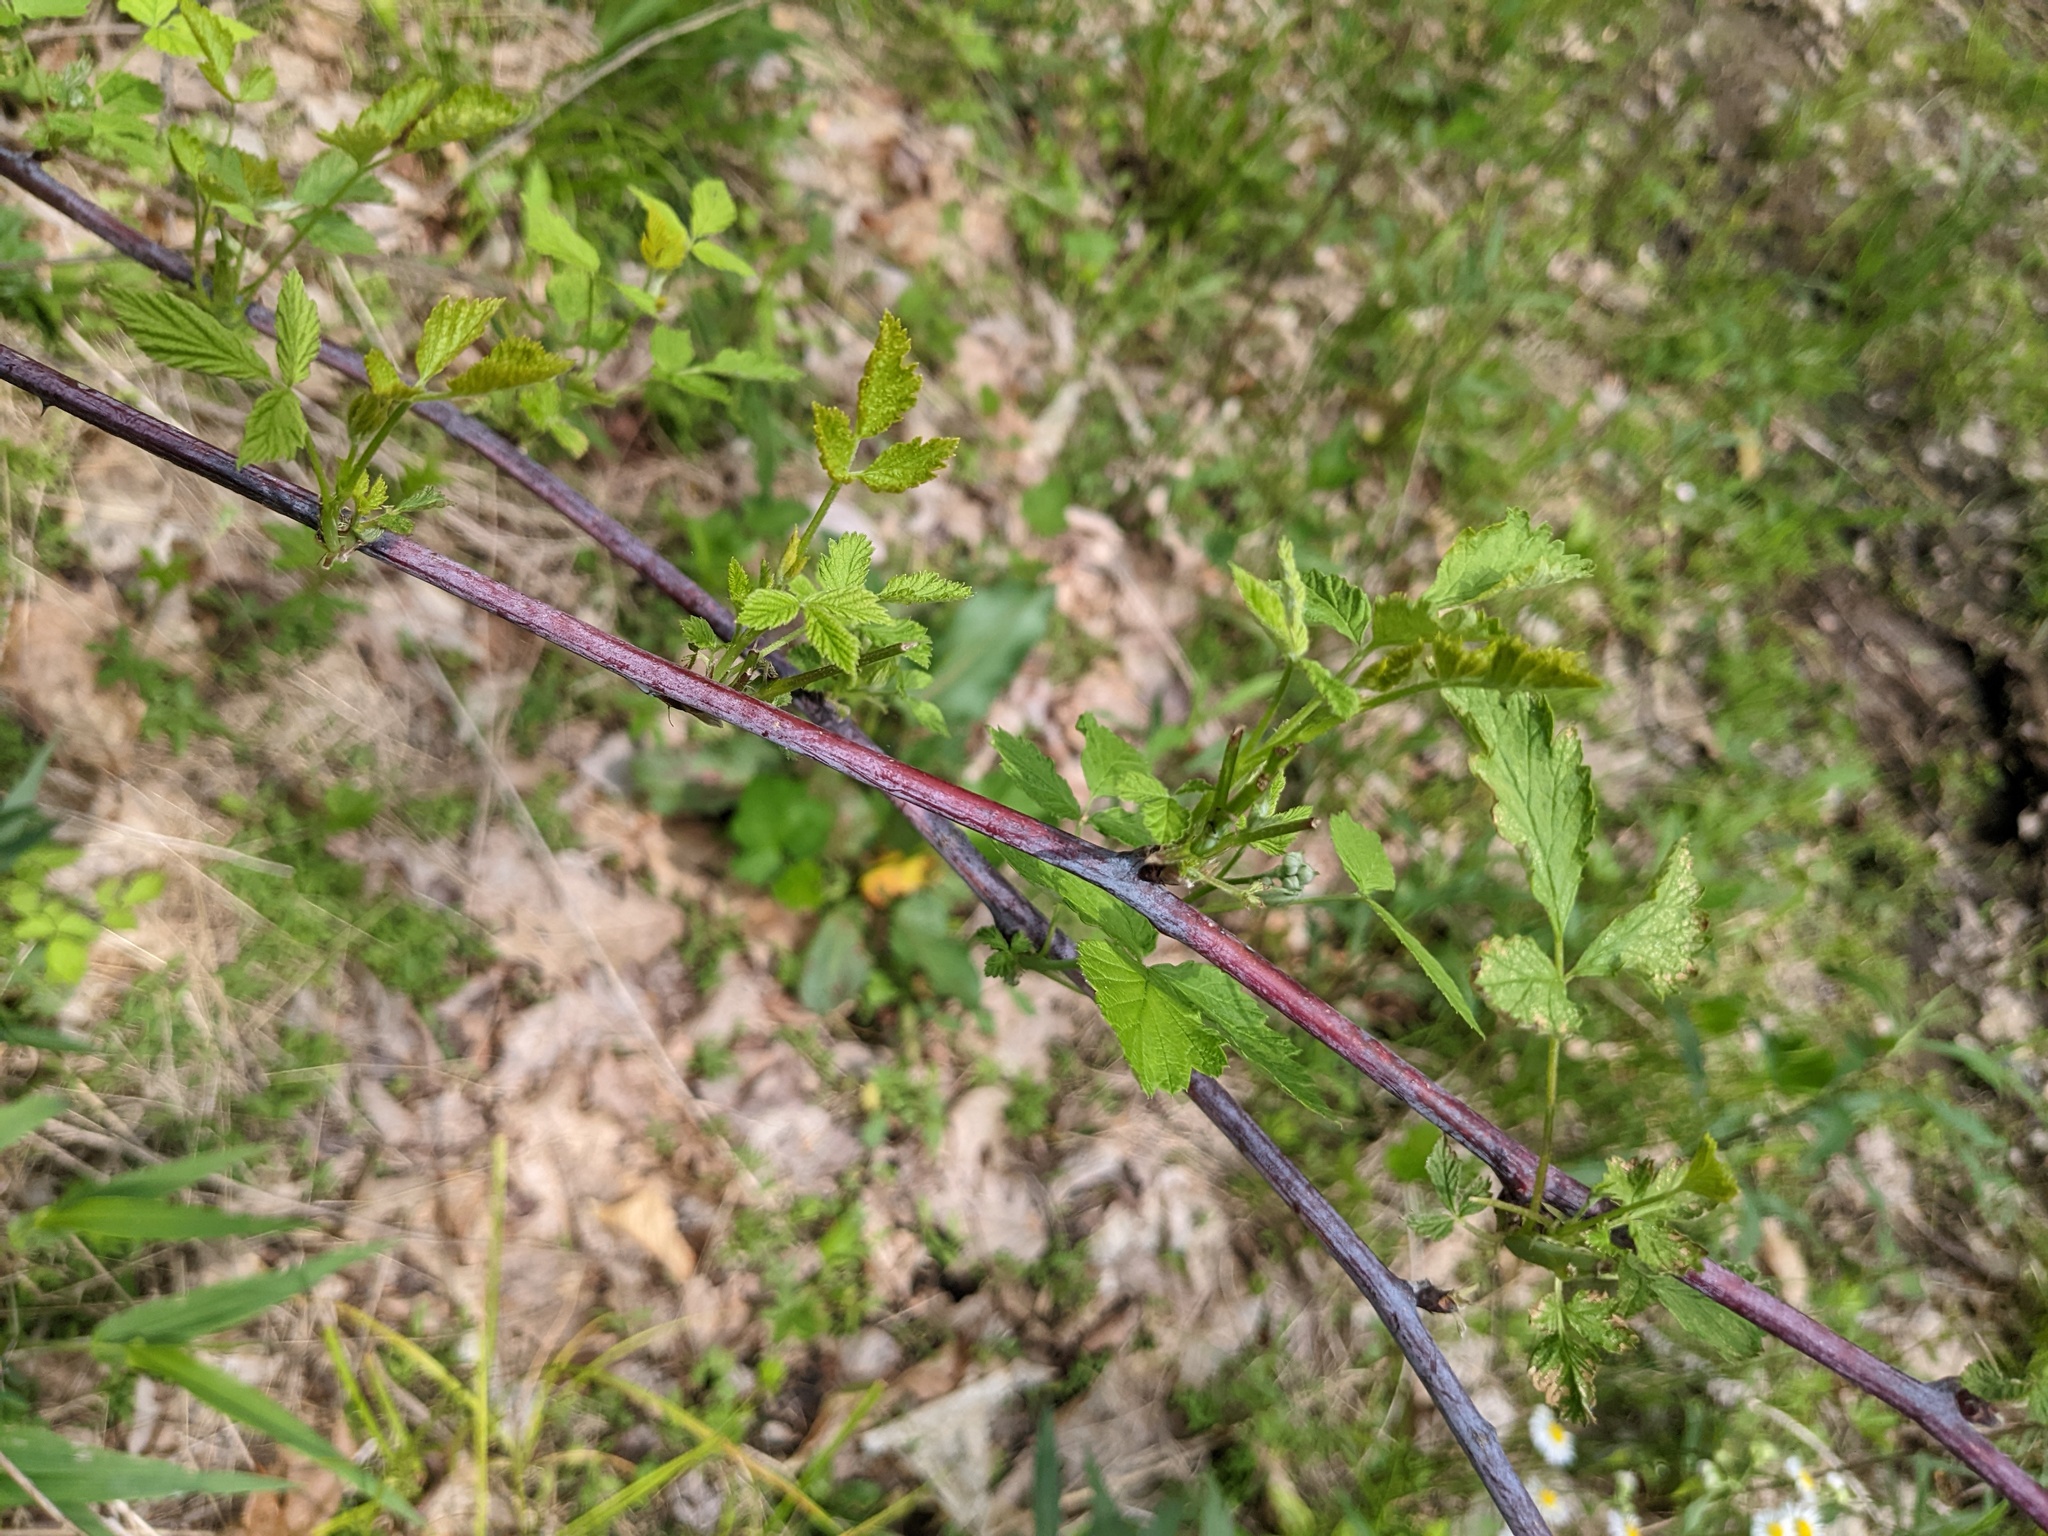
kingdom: Plantae
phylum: Tracheophyta
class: Magnoliopsida
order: Rosales
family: Rosaceae
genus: Rubus
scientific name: Rubus occidentalis
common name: Black raspberry
